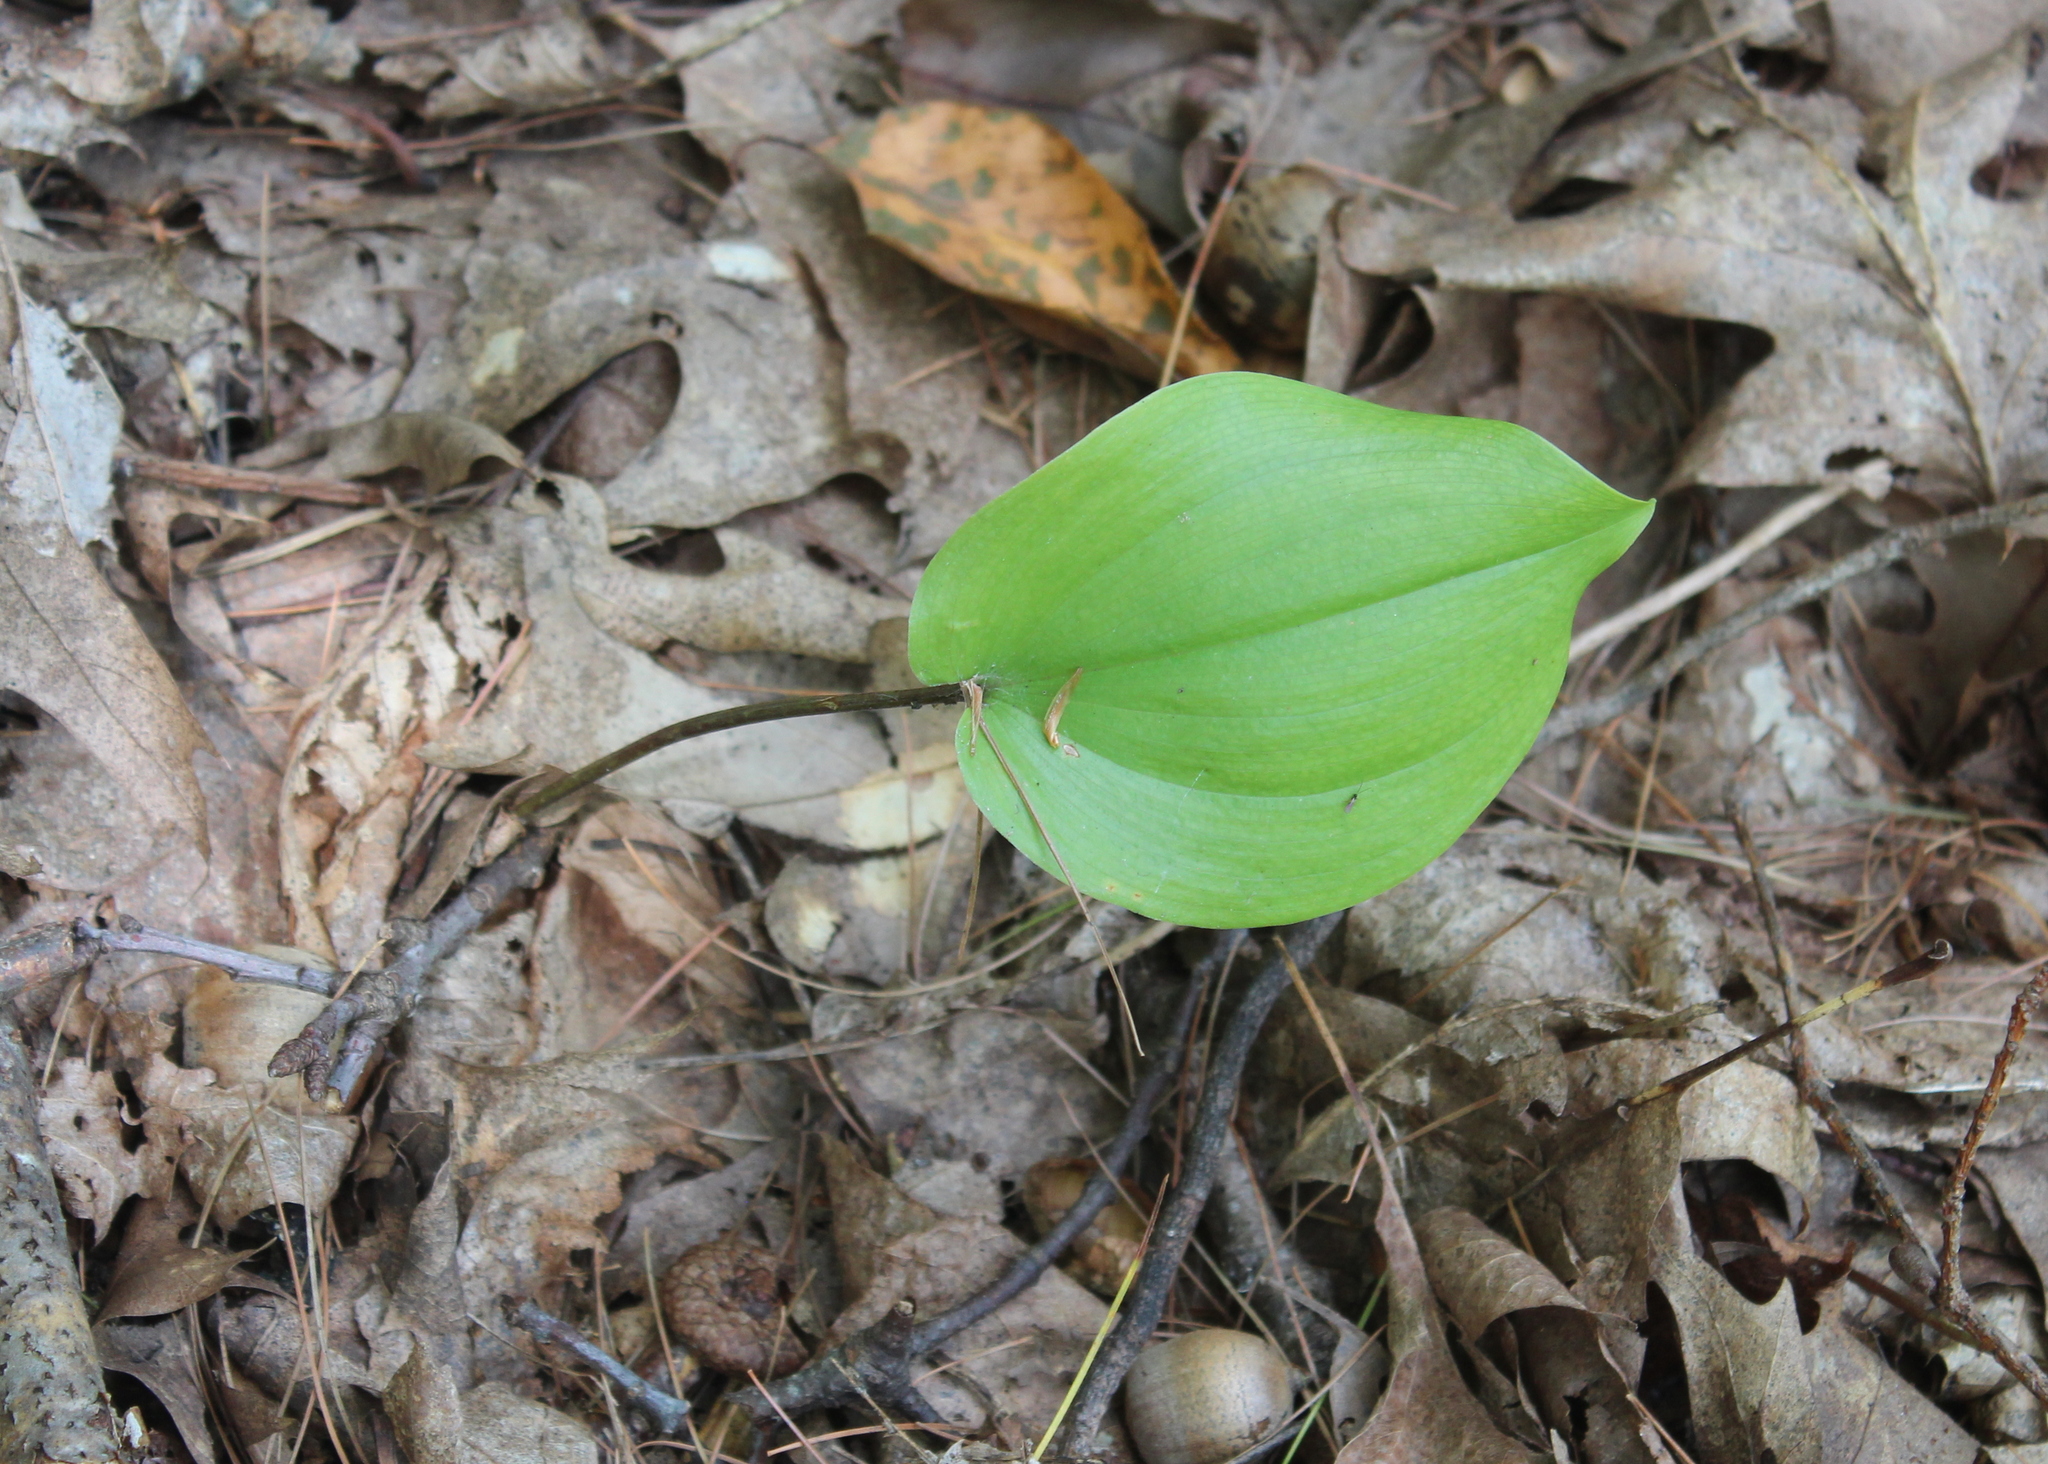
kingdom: Plantae
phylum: Tracheophyta
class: Liliopsida
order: Asparagales
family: Asparagaceae
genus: Maianthemum
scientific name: Maianthemum canadense
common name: False lily-of-the-valley
